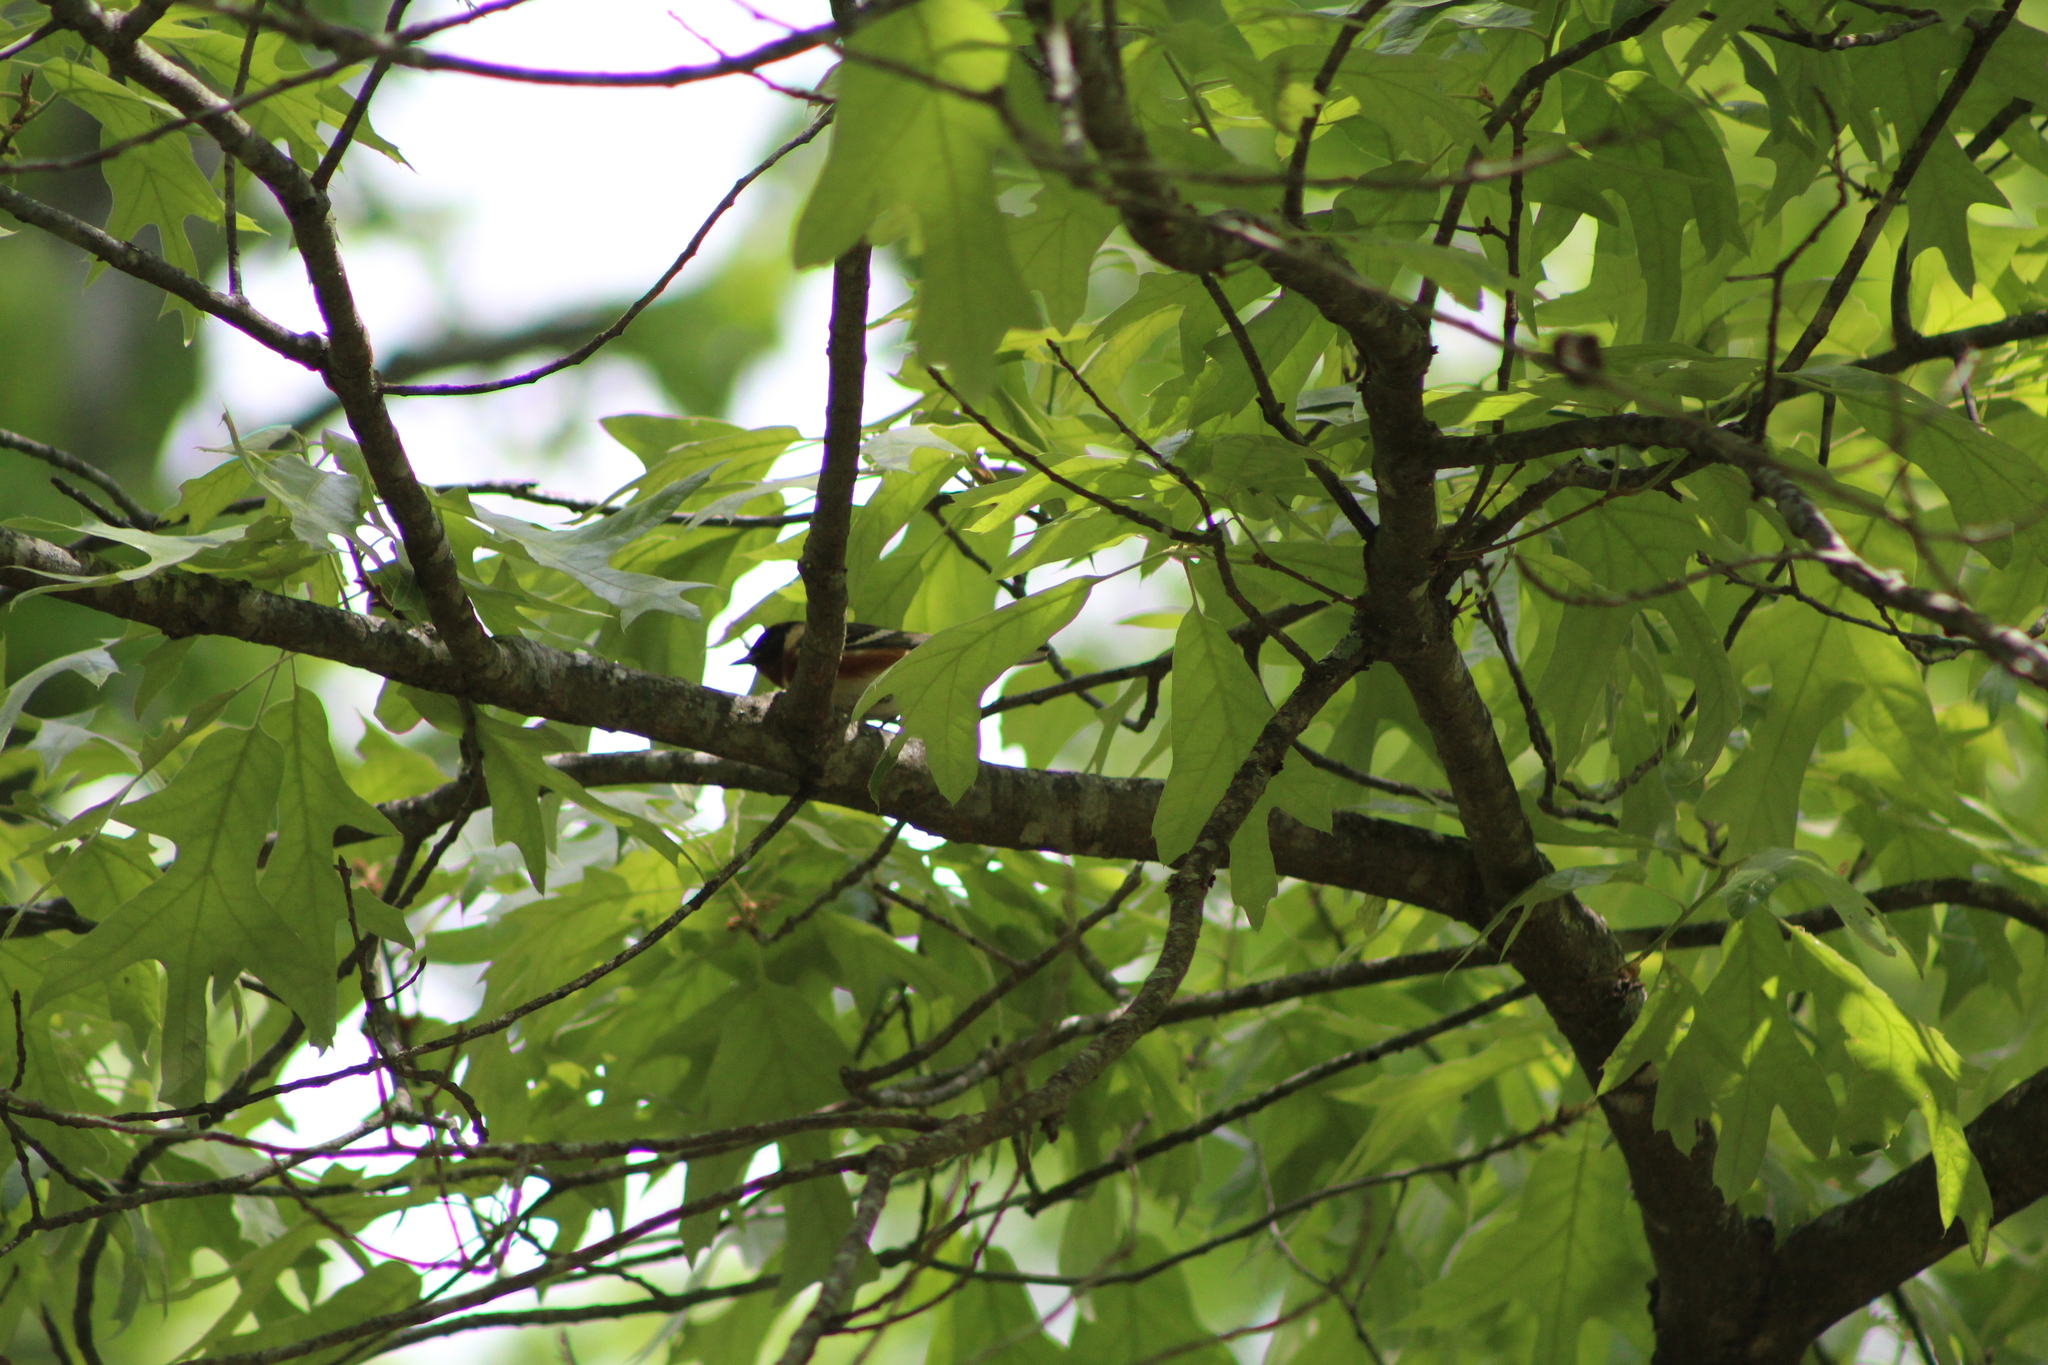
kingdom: Animalia
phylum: Chordata
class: Aves
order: Passeriformes
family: Parulidae
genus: Setophaga
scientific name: Setophaga castanea
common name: Bay-breasted warbler
